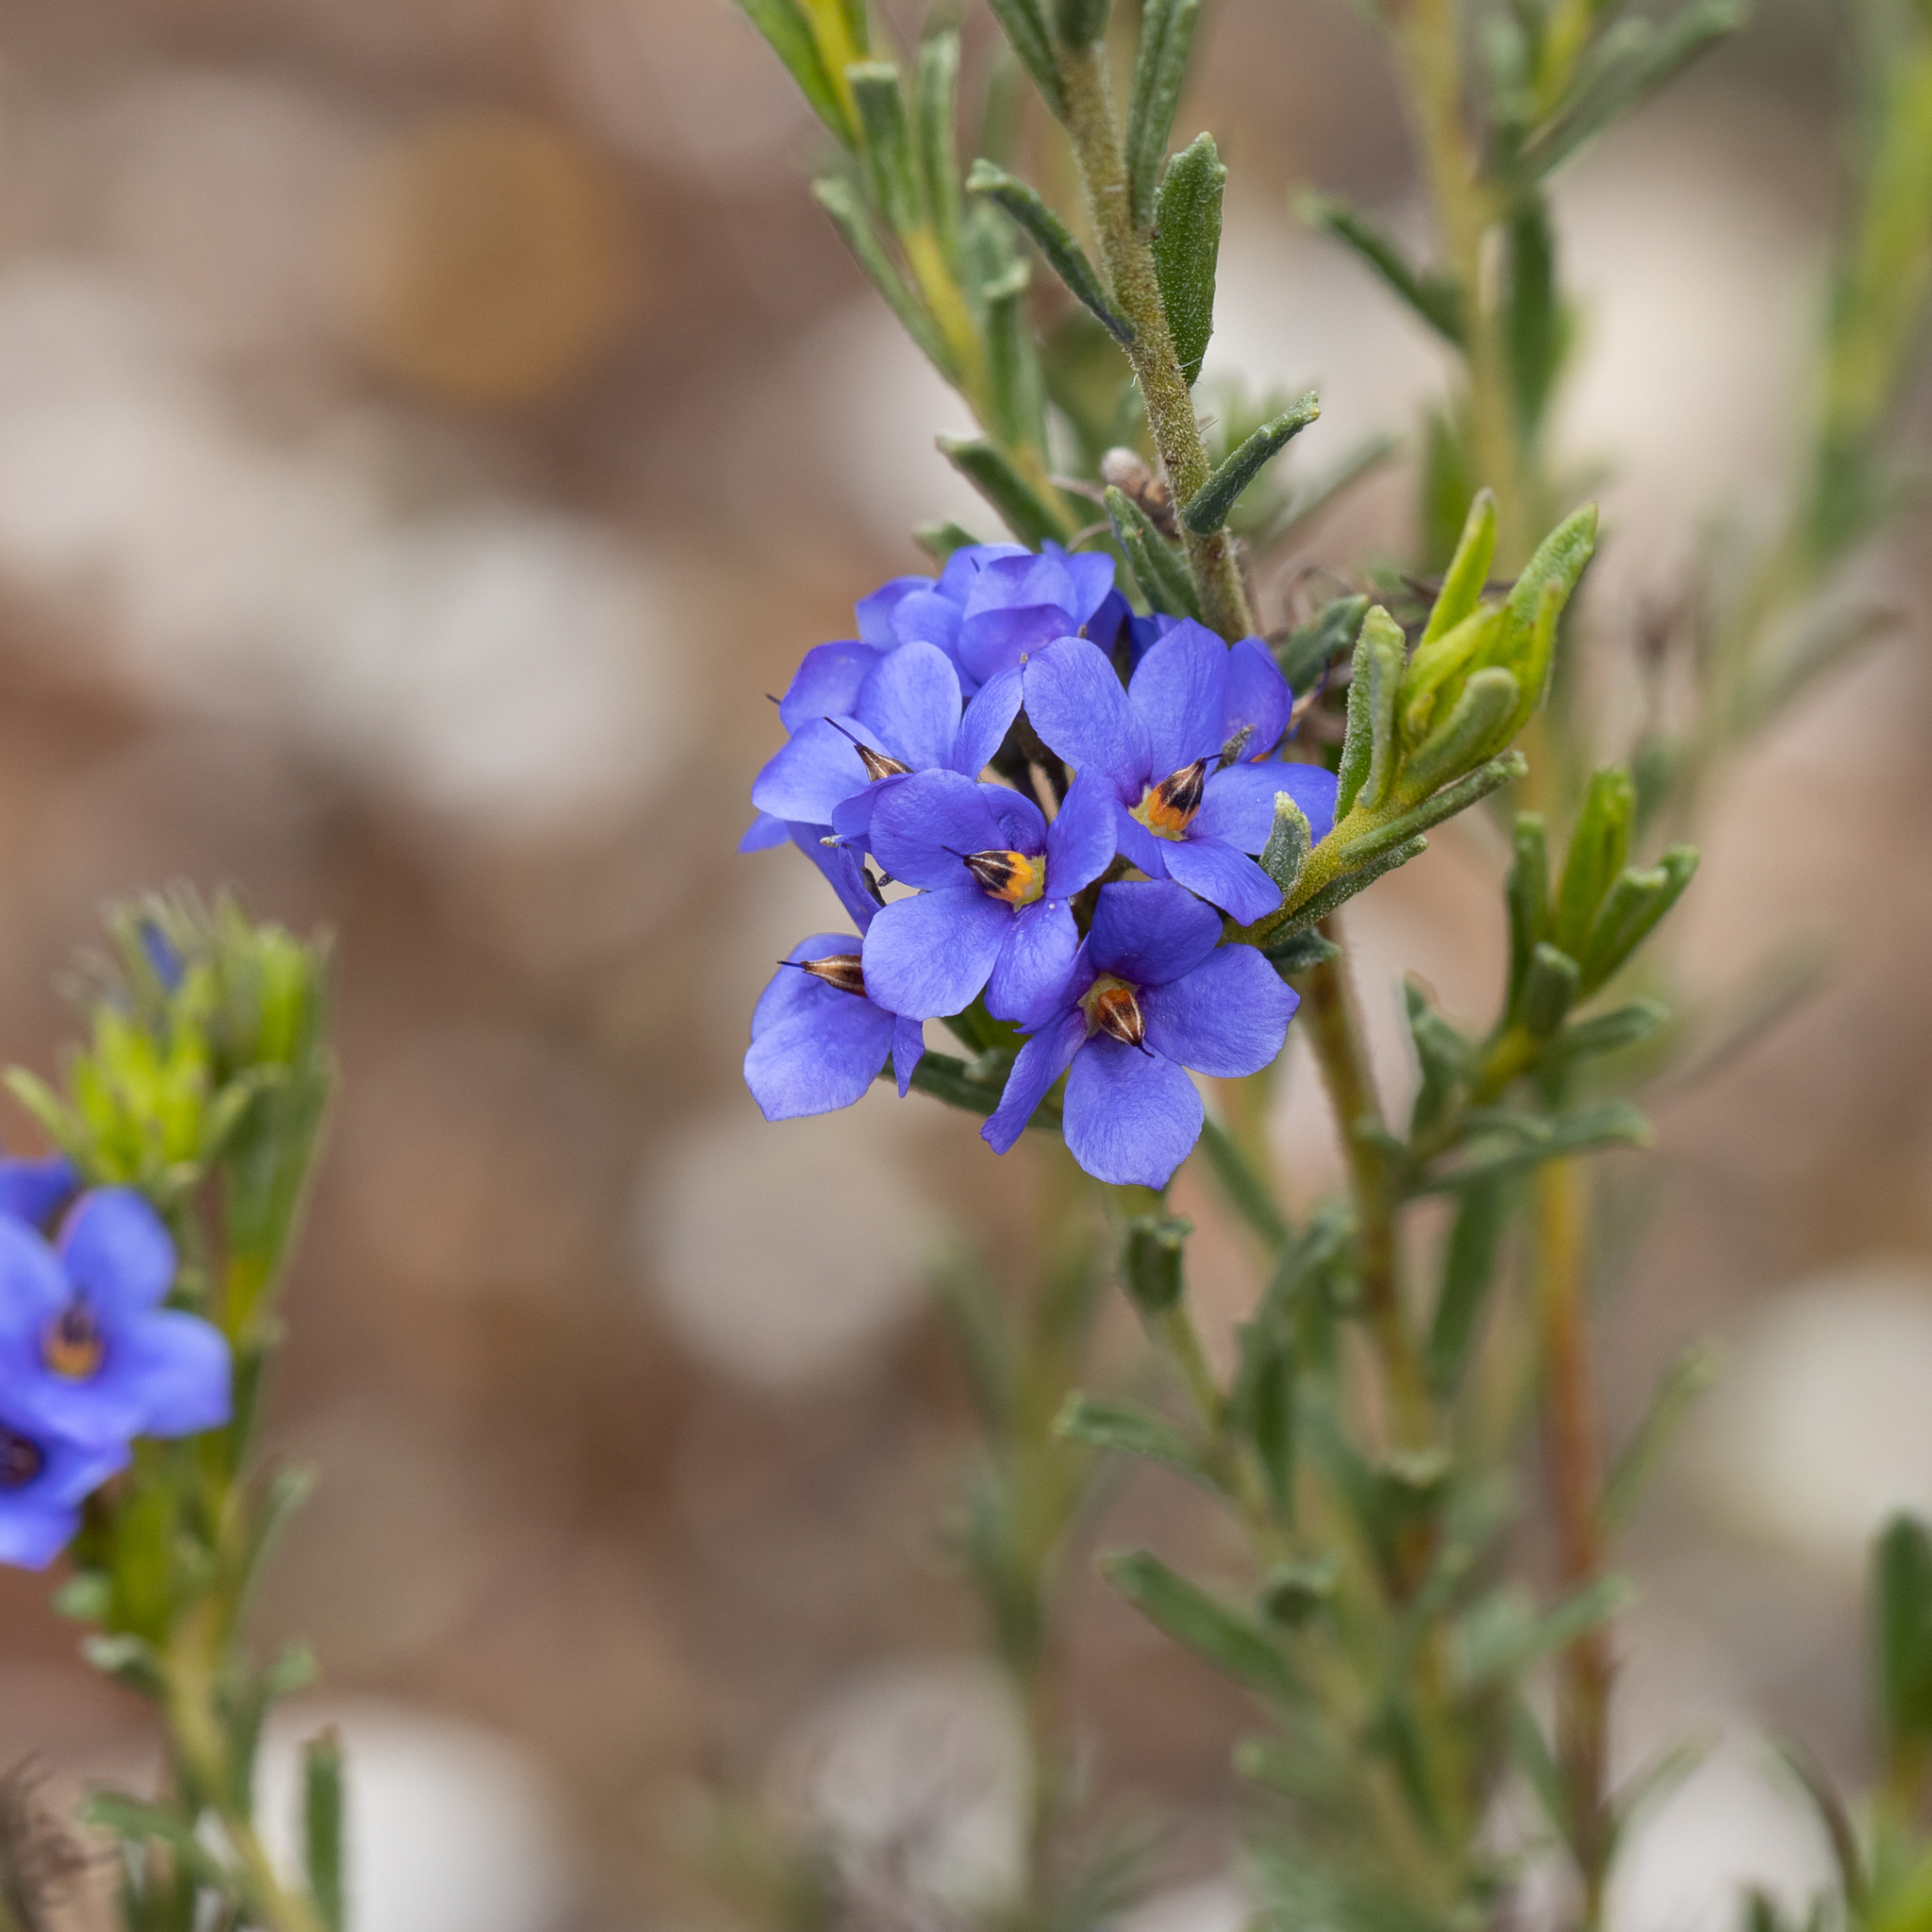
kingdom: Plantae
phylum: Tracheophyta
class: Magnoliopsida
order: Boraginales
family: Ehretiaceae
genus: Halgania
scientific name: Halgania cyanea
